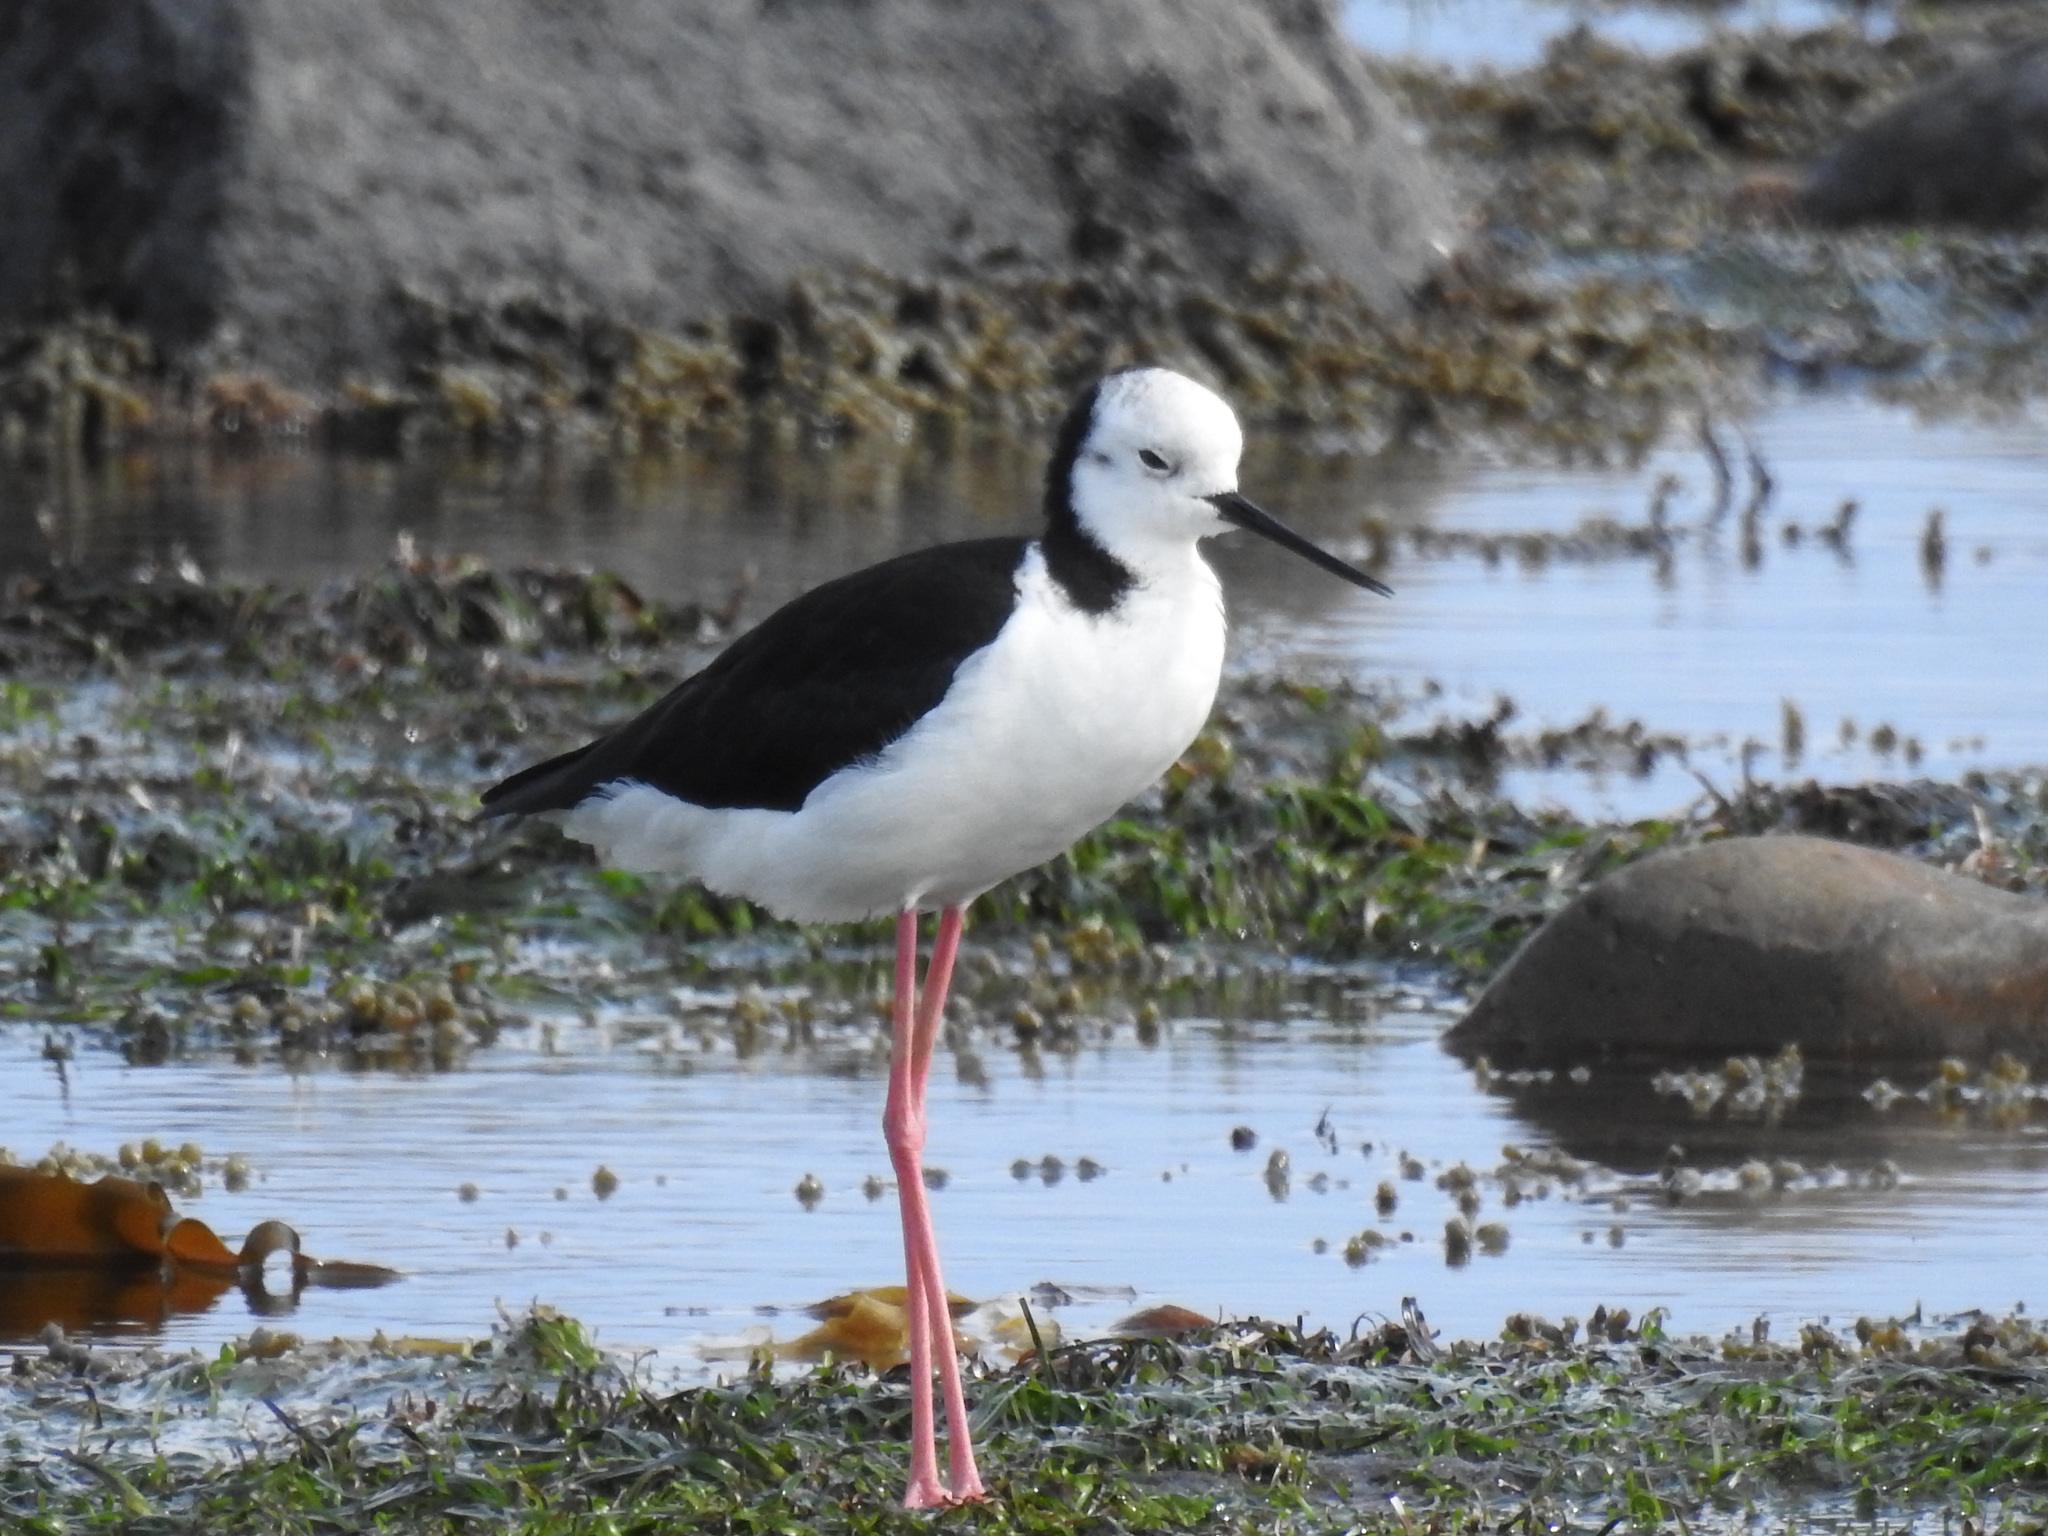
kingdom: Animalia
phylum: Chordata
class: Aves
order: Charadriiformes
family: Recurvirostridae
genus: Himantopus
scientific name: Himantopus leucocephalus
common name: White-headed stilt
